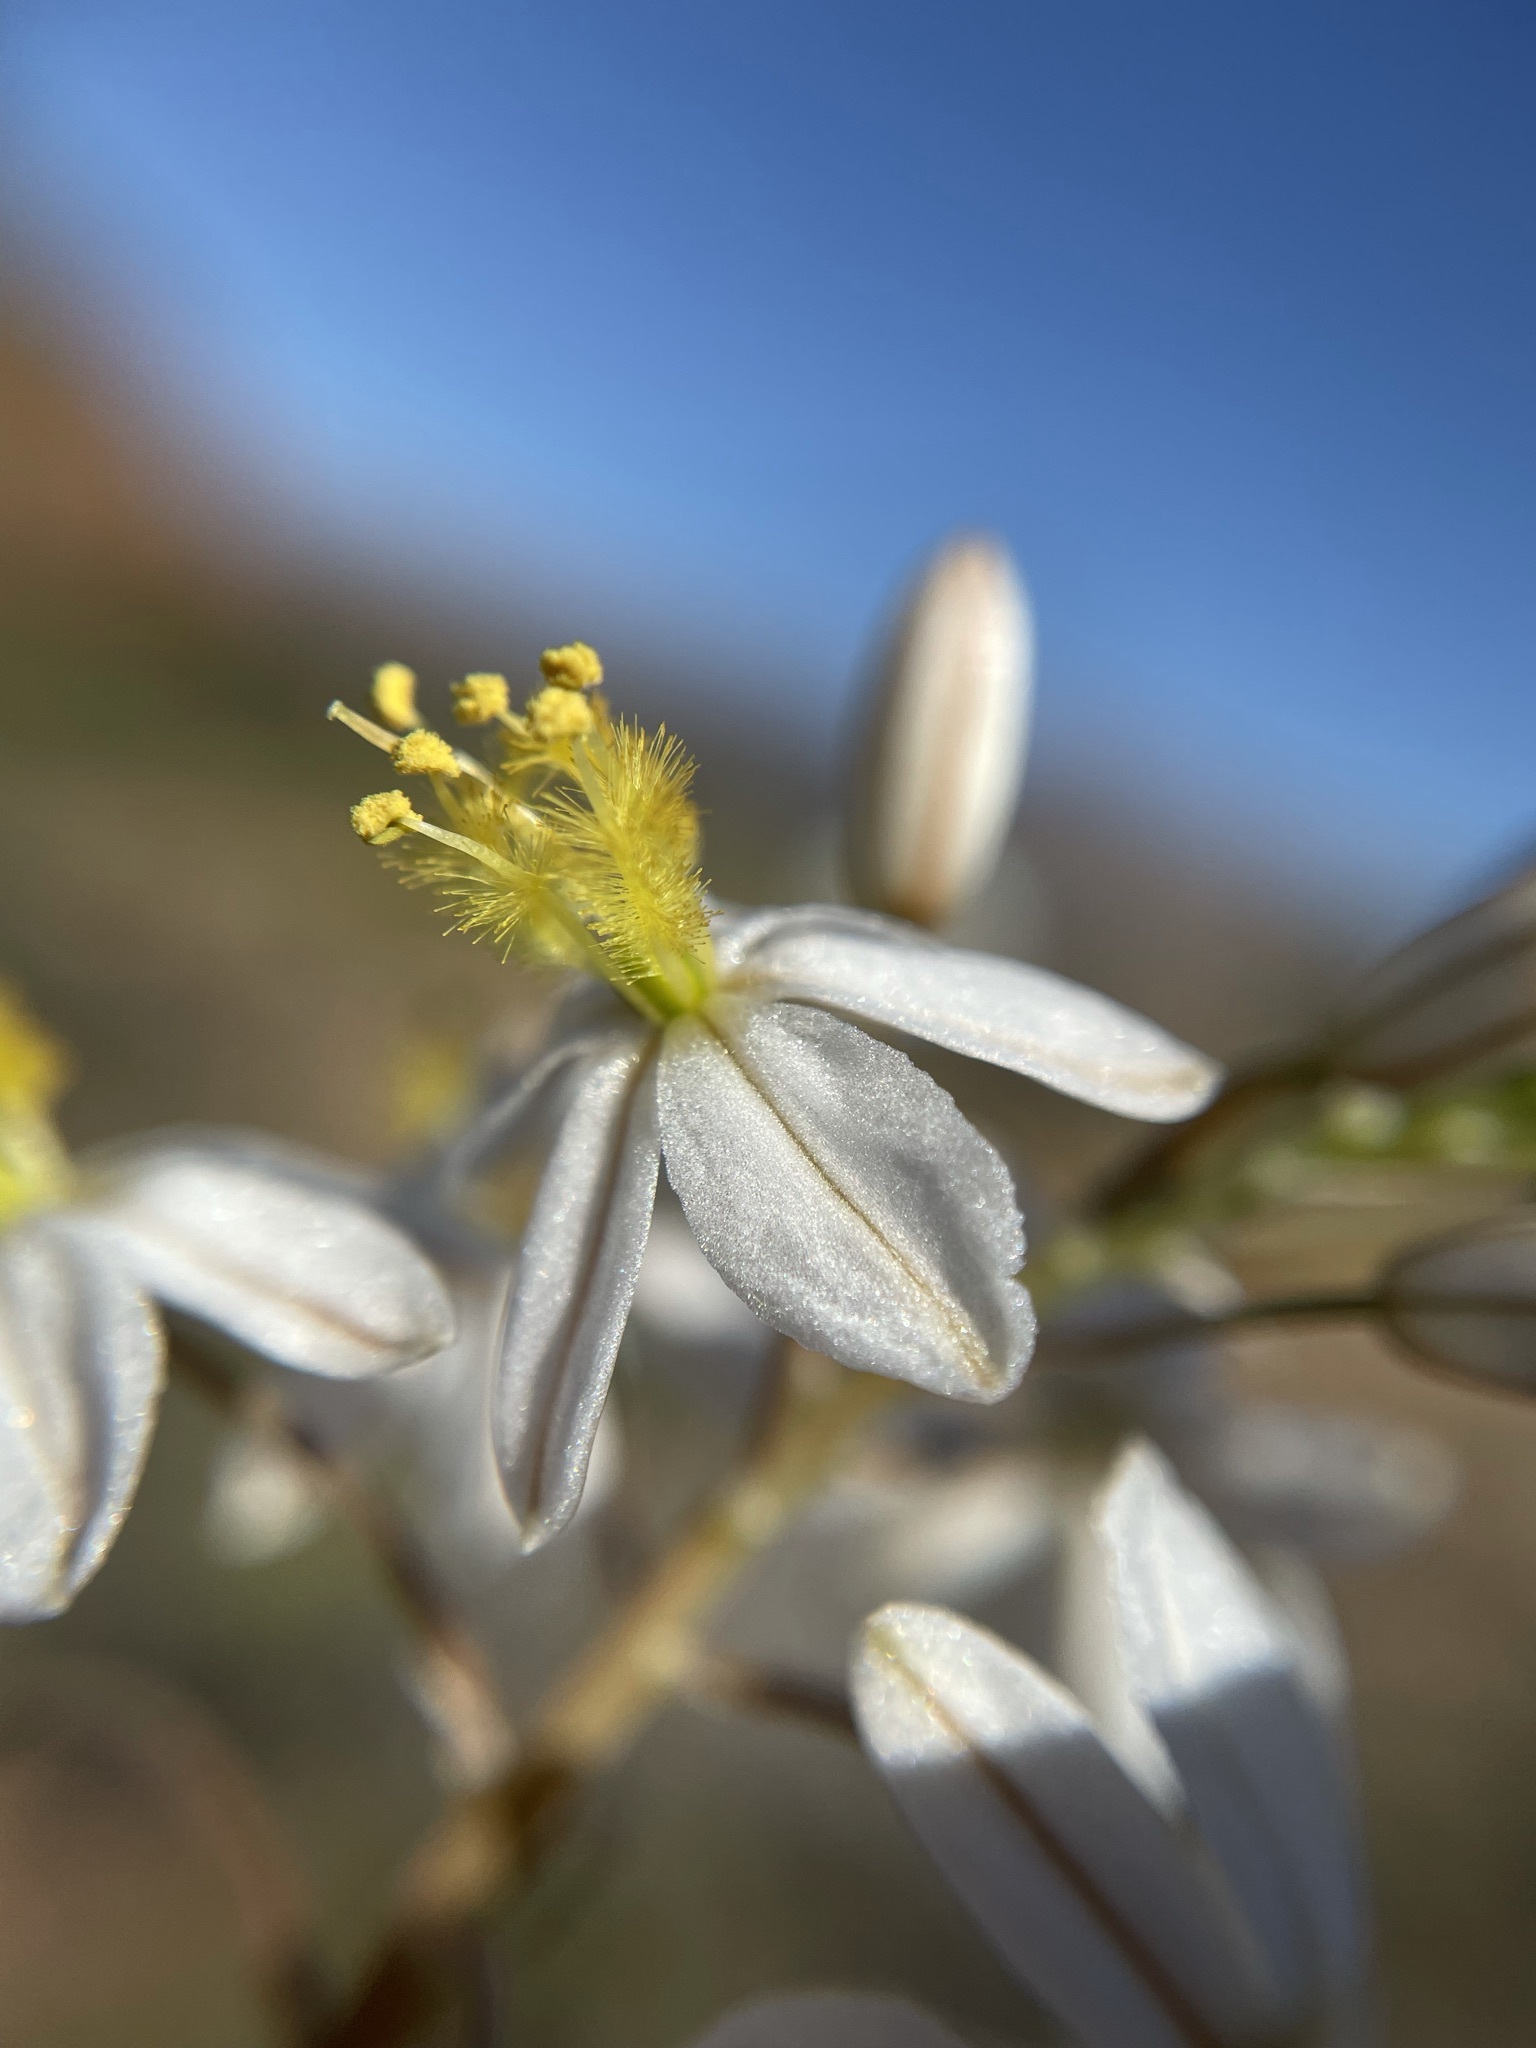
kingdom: Plantae
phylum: Tracheophyta
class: Liliopsida
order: Asparagales
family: Asphodelaceae
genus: Bulbine
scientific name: Bulbine frutescens
